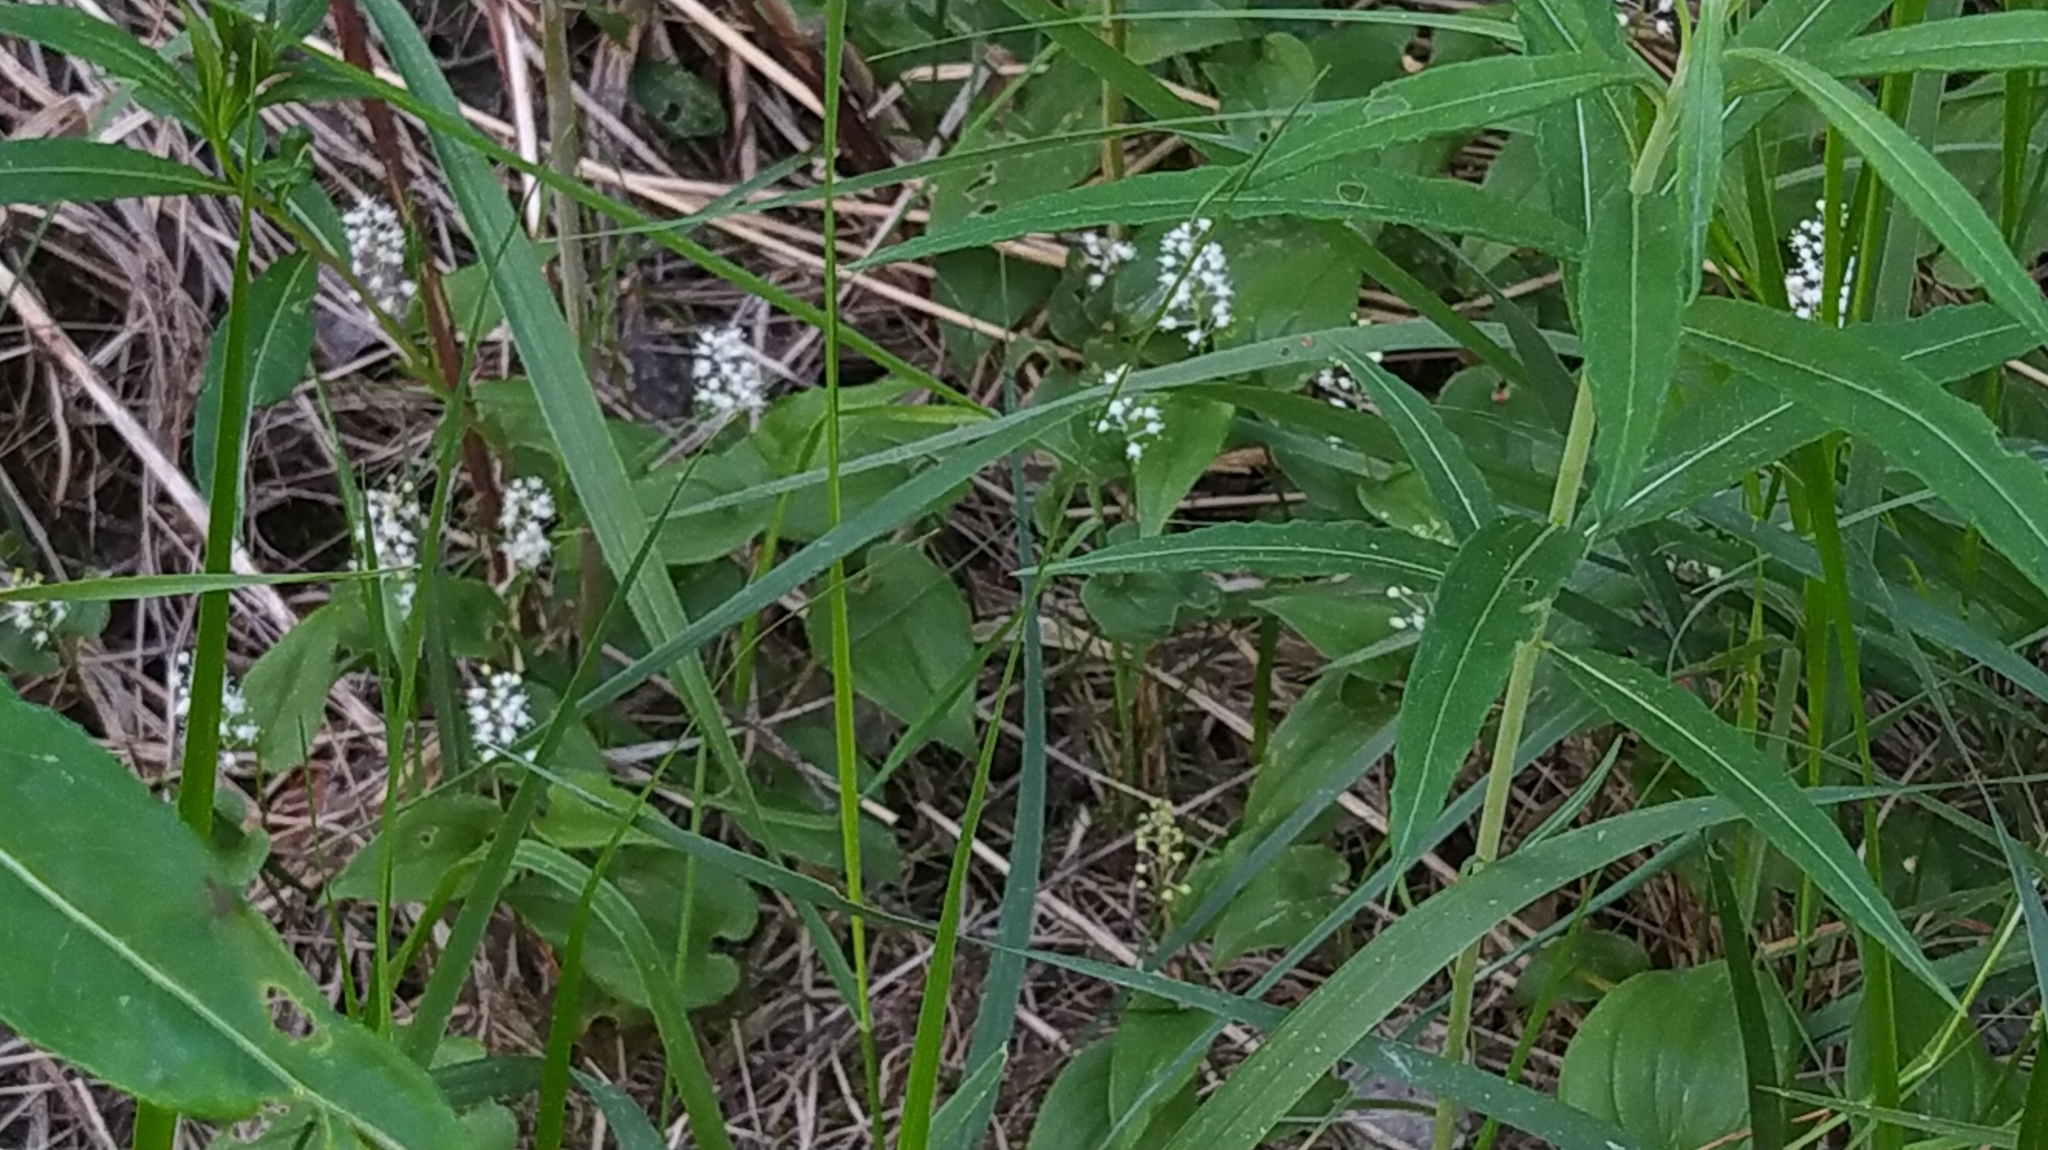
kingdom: Plantae
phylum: Tracheophyta
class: Liliopsida
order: Asparagales
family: Asparagaceae
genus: Maianthemum
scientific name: Maianthemum bifolium
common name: May lily
